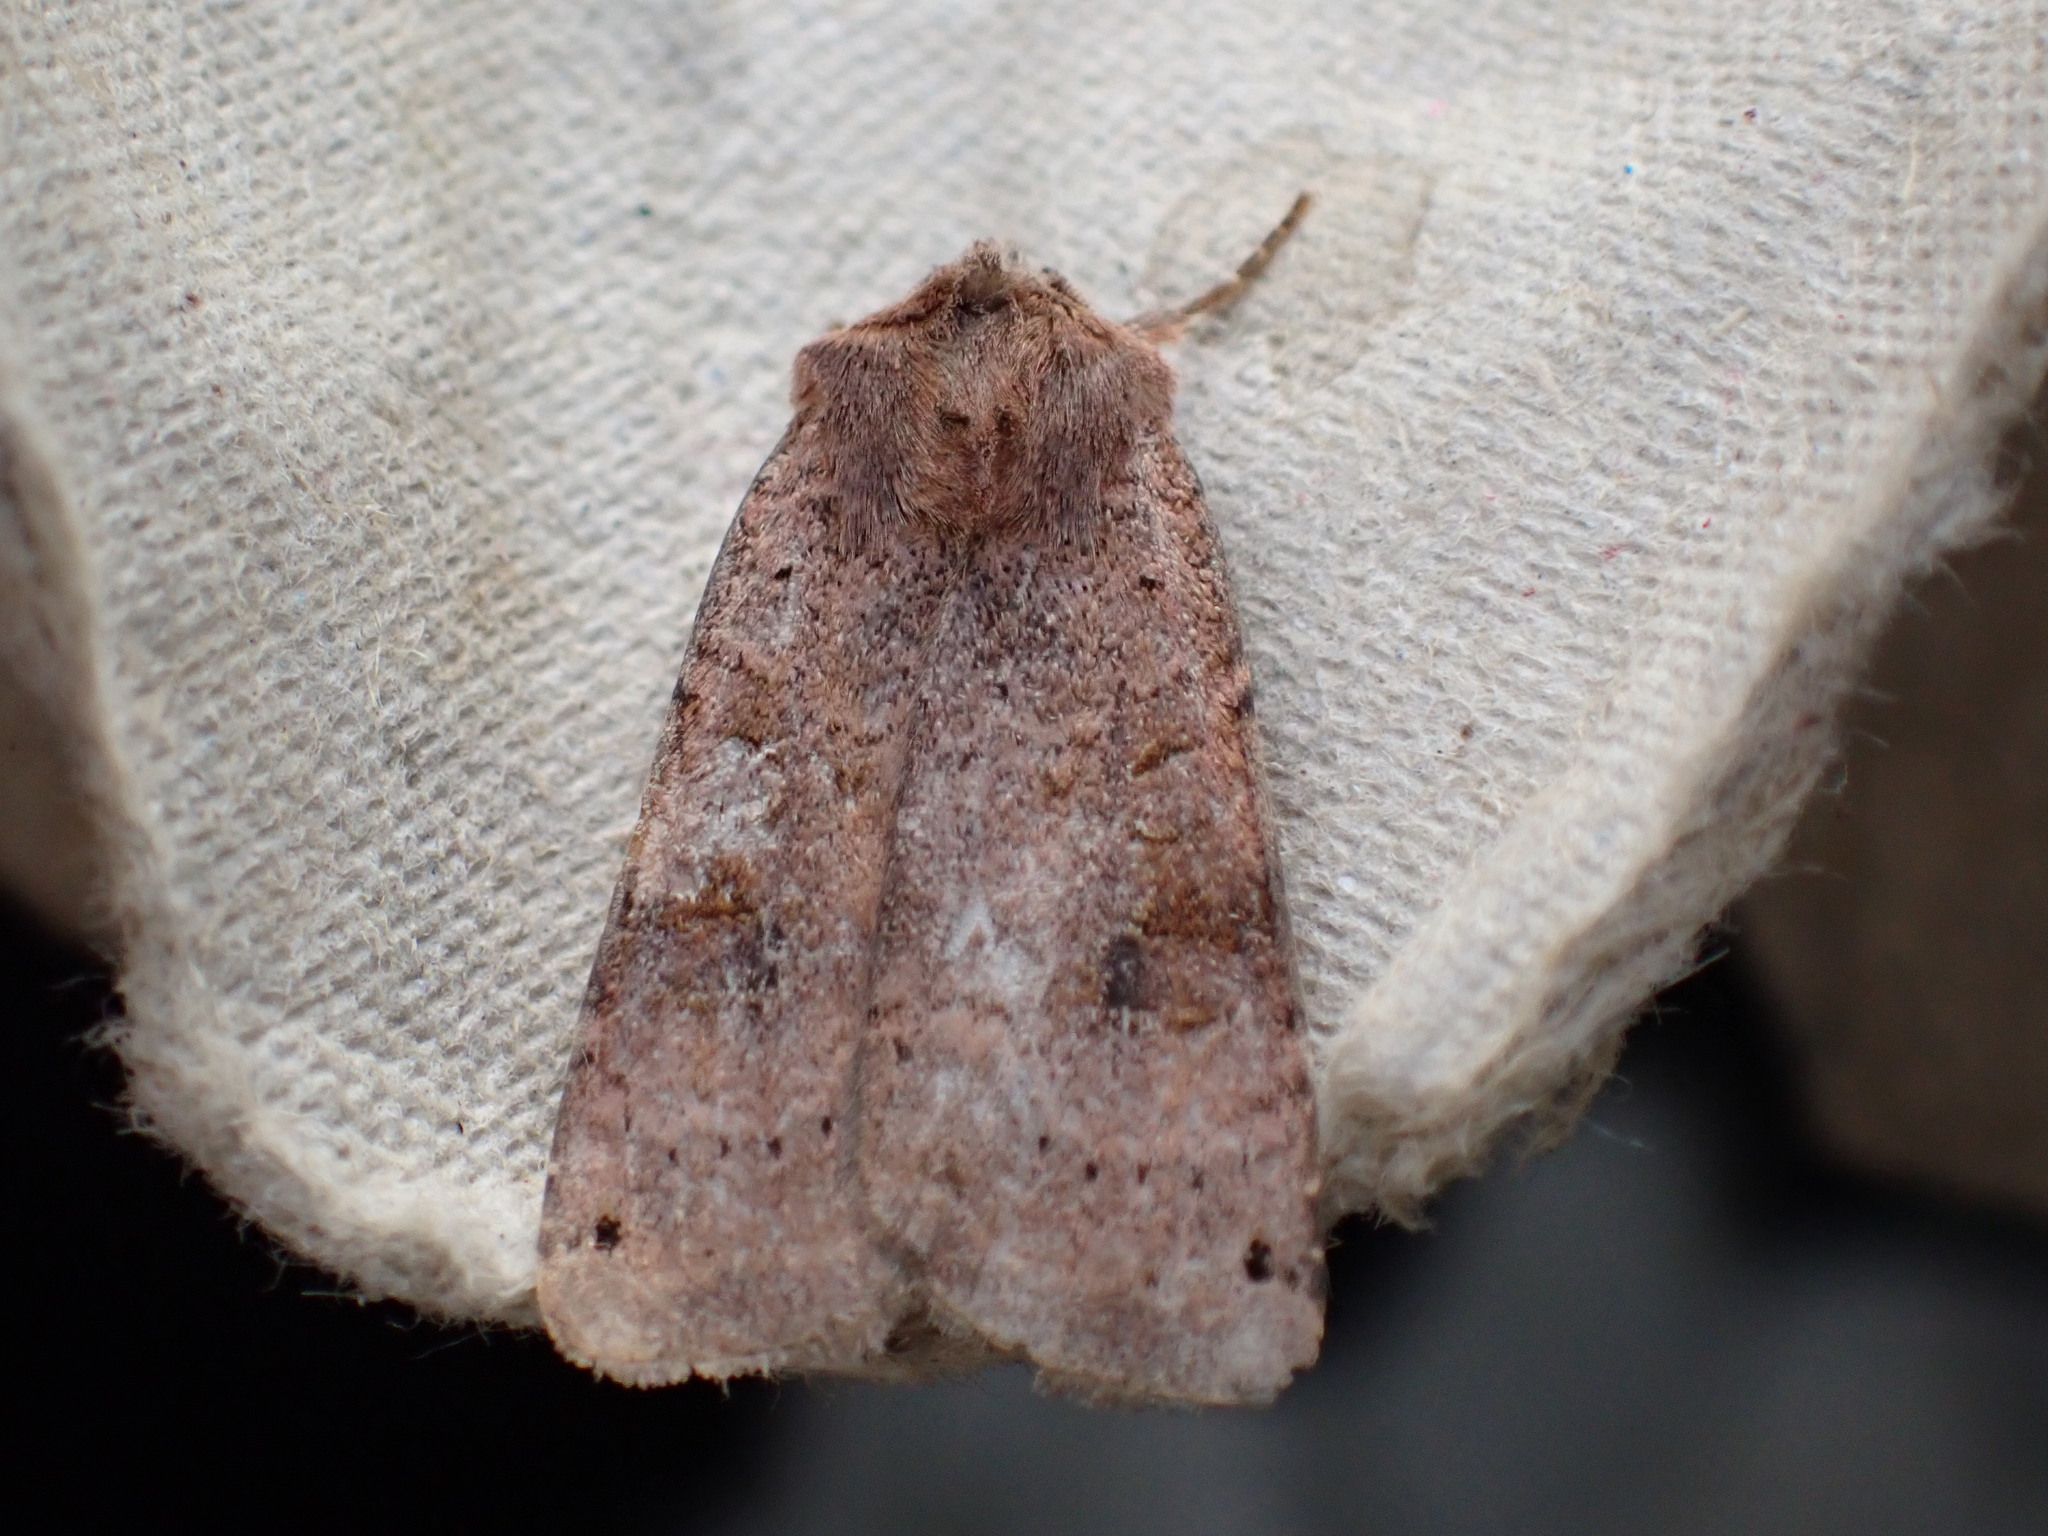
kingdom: Animalia
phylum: Arthropoda
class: Insecta
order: Lepidoptera
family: Noctuidae
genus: Xestia
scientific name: Xestia baja
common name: Dotted clay
